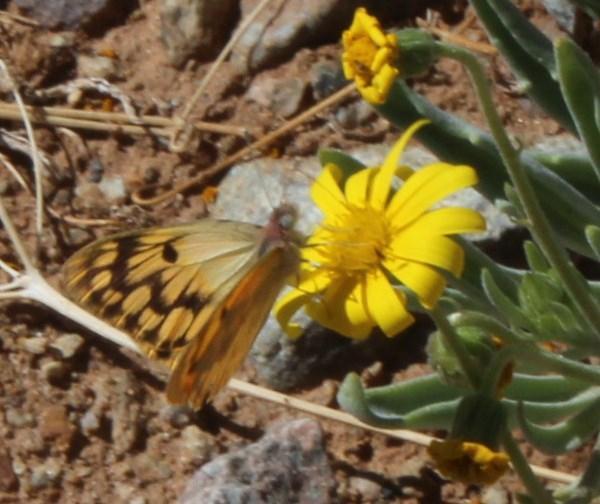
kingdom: Animalia
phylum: Arthropoda
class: Insecta
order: Lepidoptera
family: Pieridae
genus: Colotis
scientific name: Colotis doubledayi
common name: Desert veined tip
